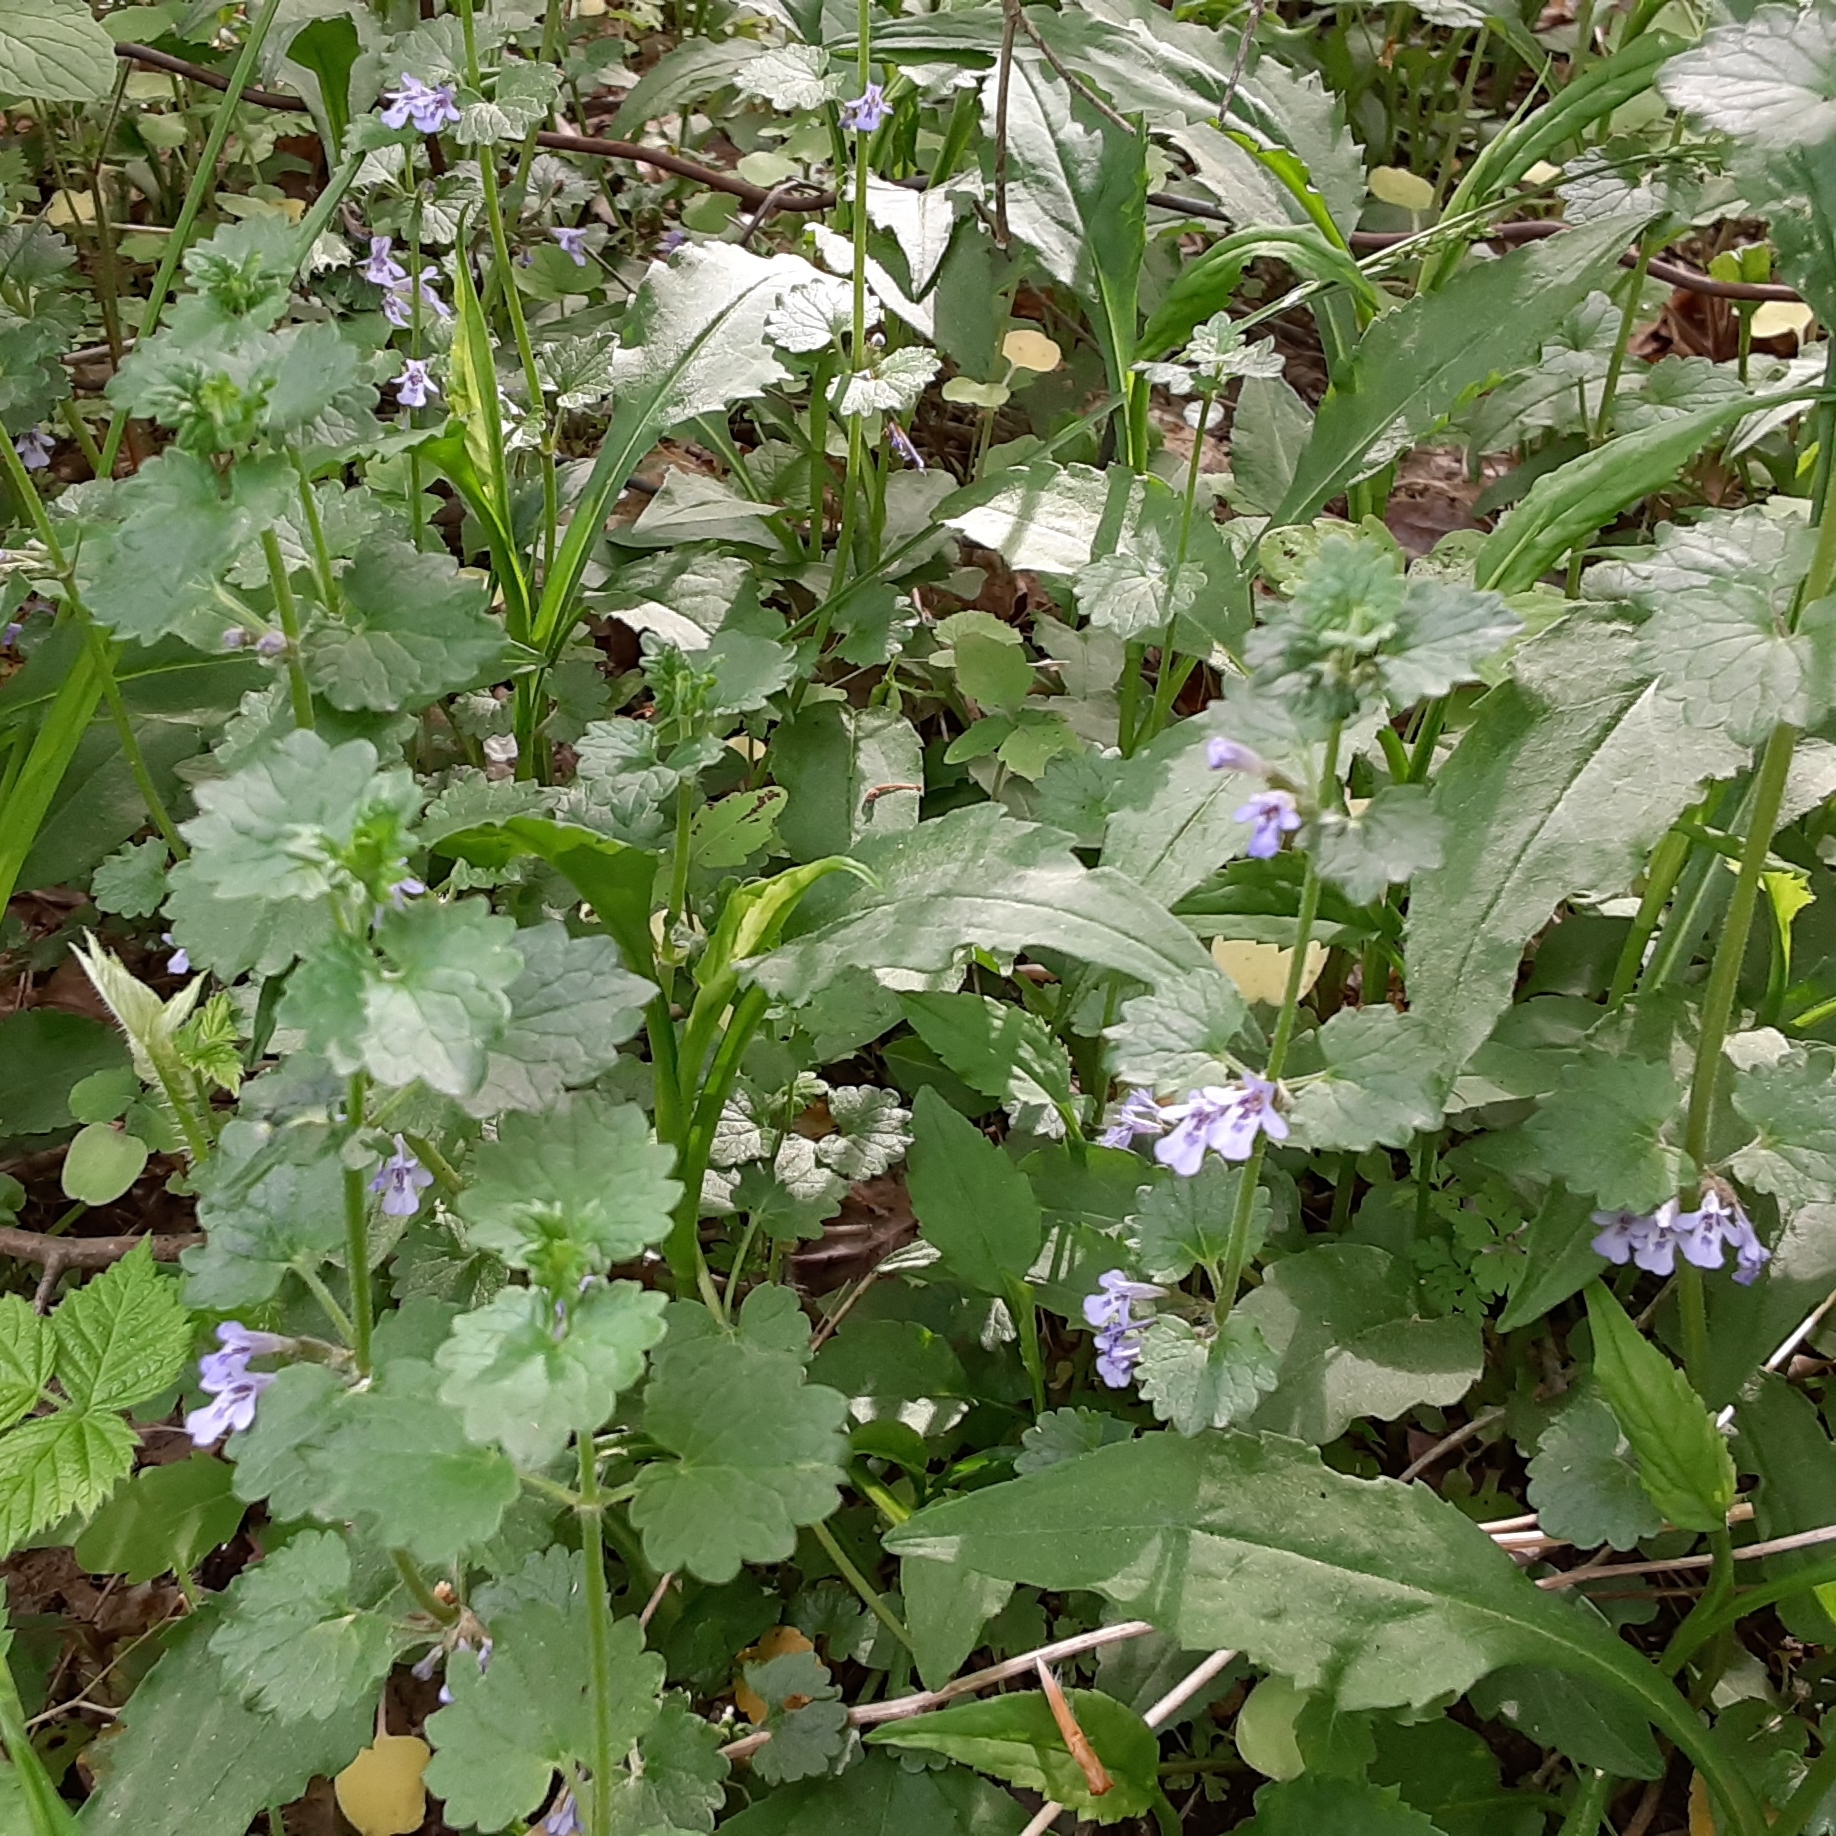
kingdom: Plantae
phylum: Tracheophyta
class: Magnoliopsida
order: Lamiales
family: Lamiaceae
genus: Glechoma
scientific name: Glechoma hederacea
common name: Ground ivy
